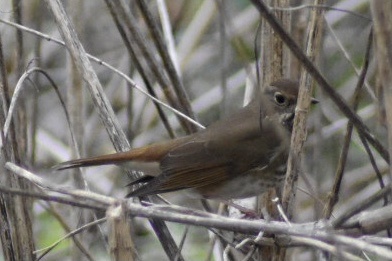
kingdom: Animalia
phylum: Chordata
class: Aves
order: Passeriformes
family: Turdidae
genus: Catharus
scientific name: Catharus guttatus
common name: Hermit thrush
